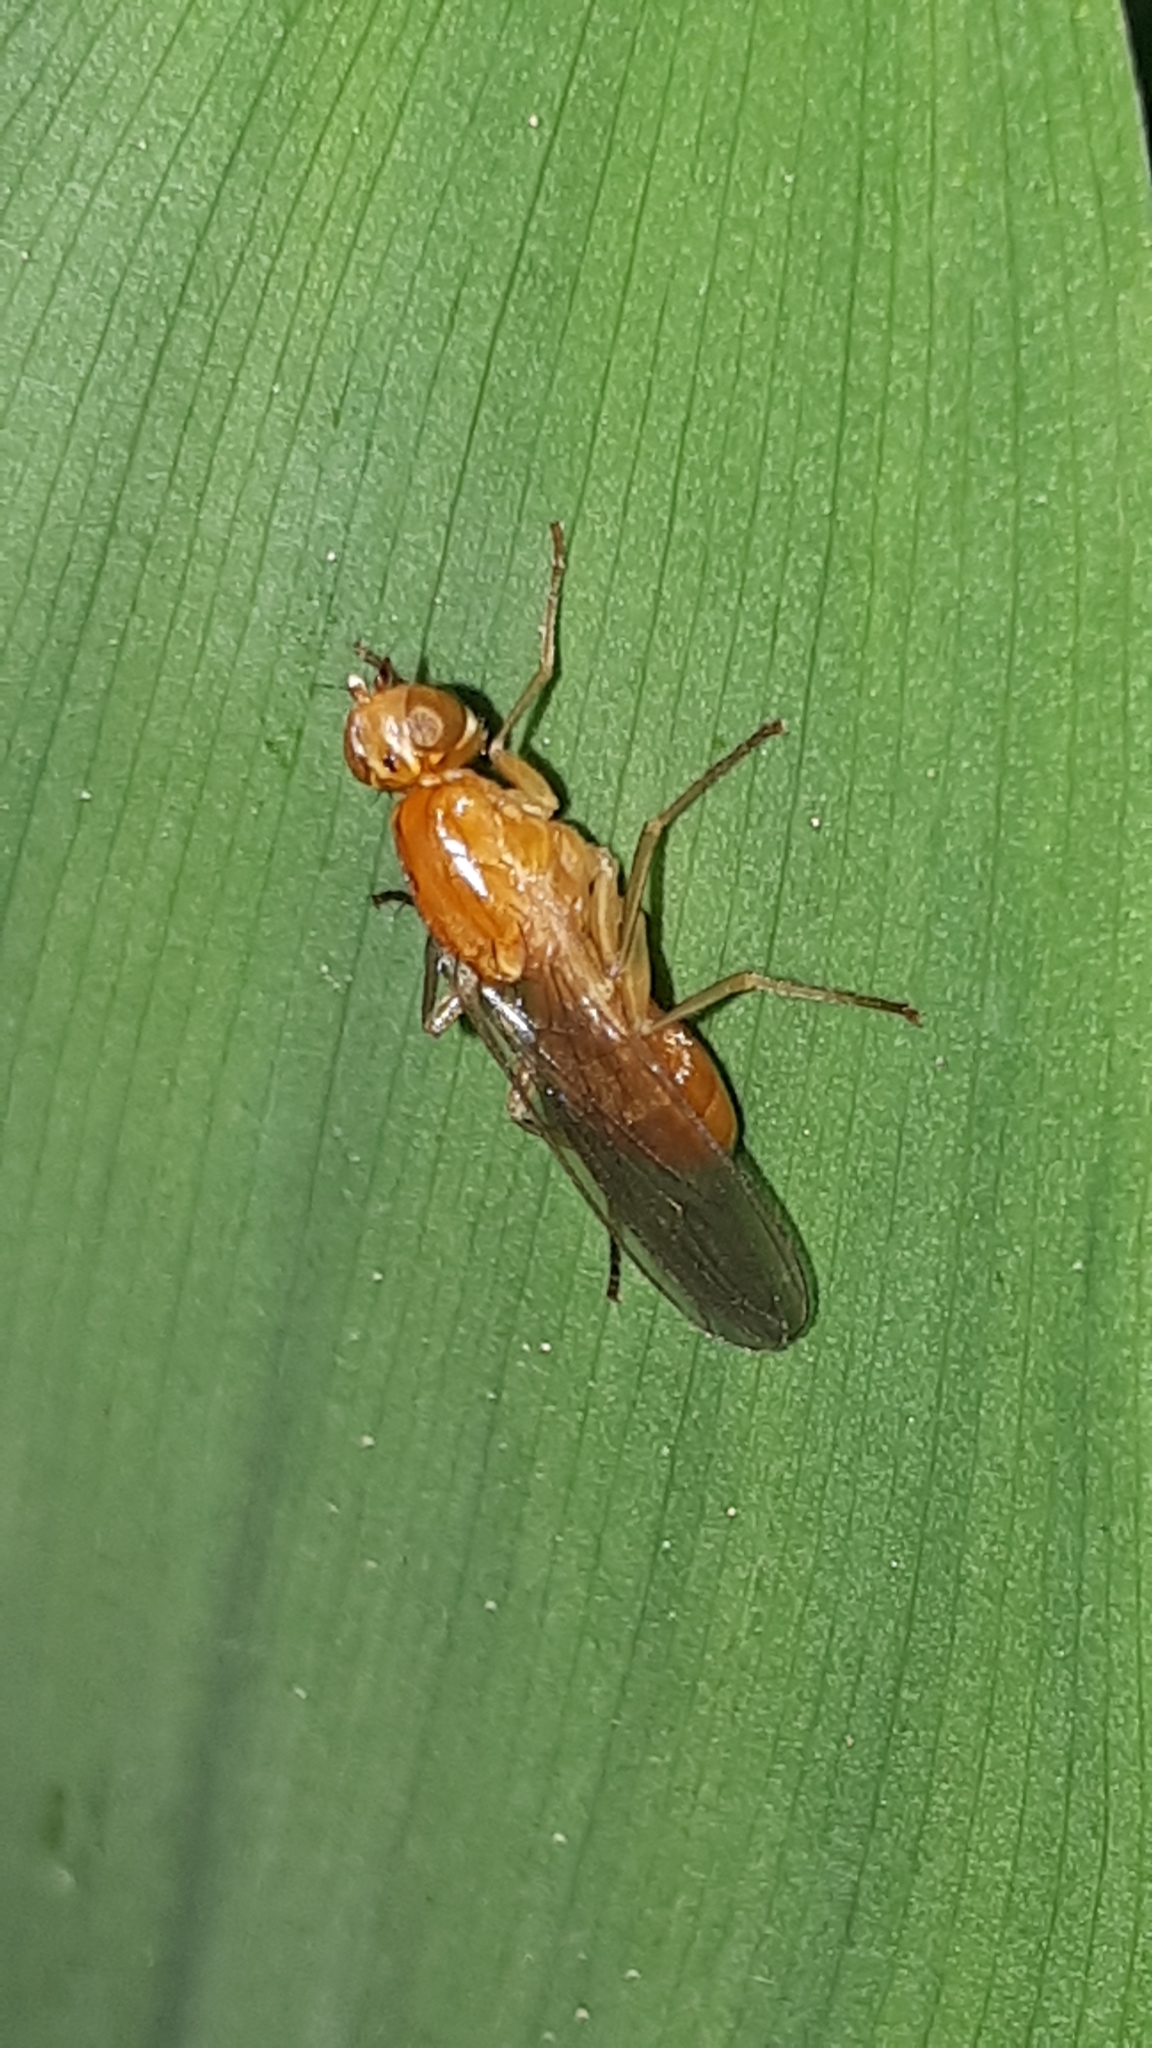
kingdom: Animalia
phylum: Arthropoda
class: Insecta
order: Diptera
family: Psilidae
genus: Psila
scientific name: Psila fimetaria
